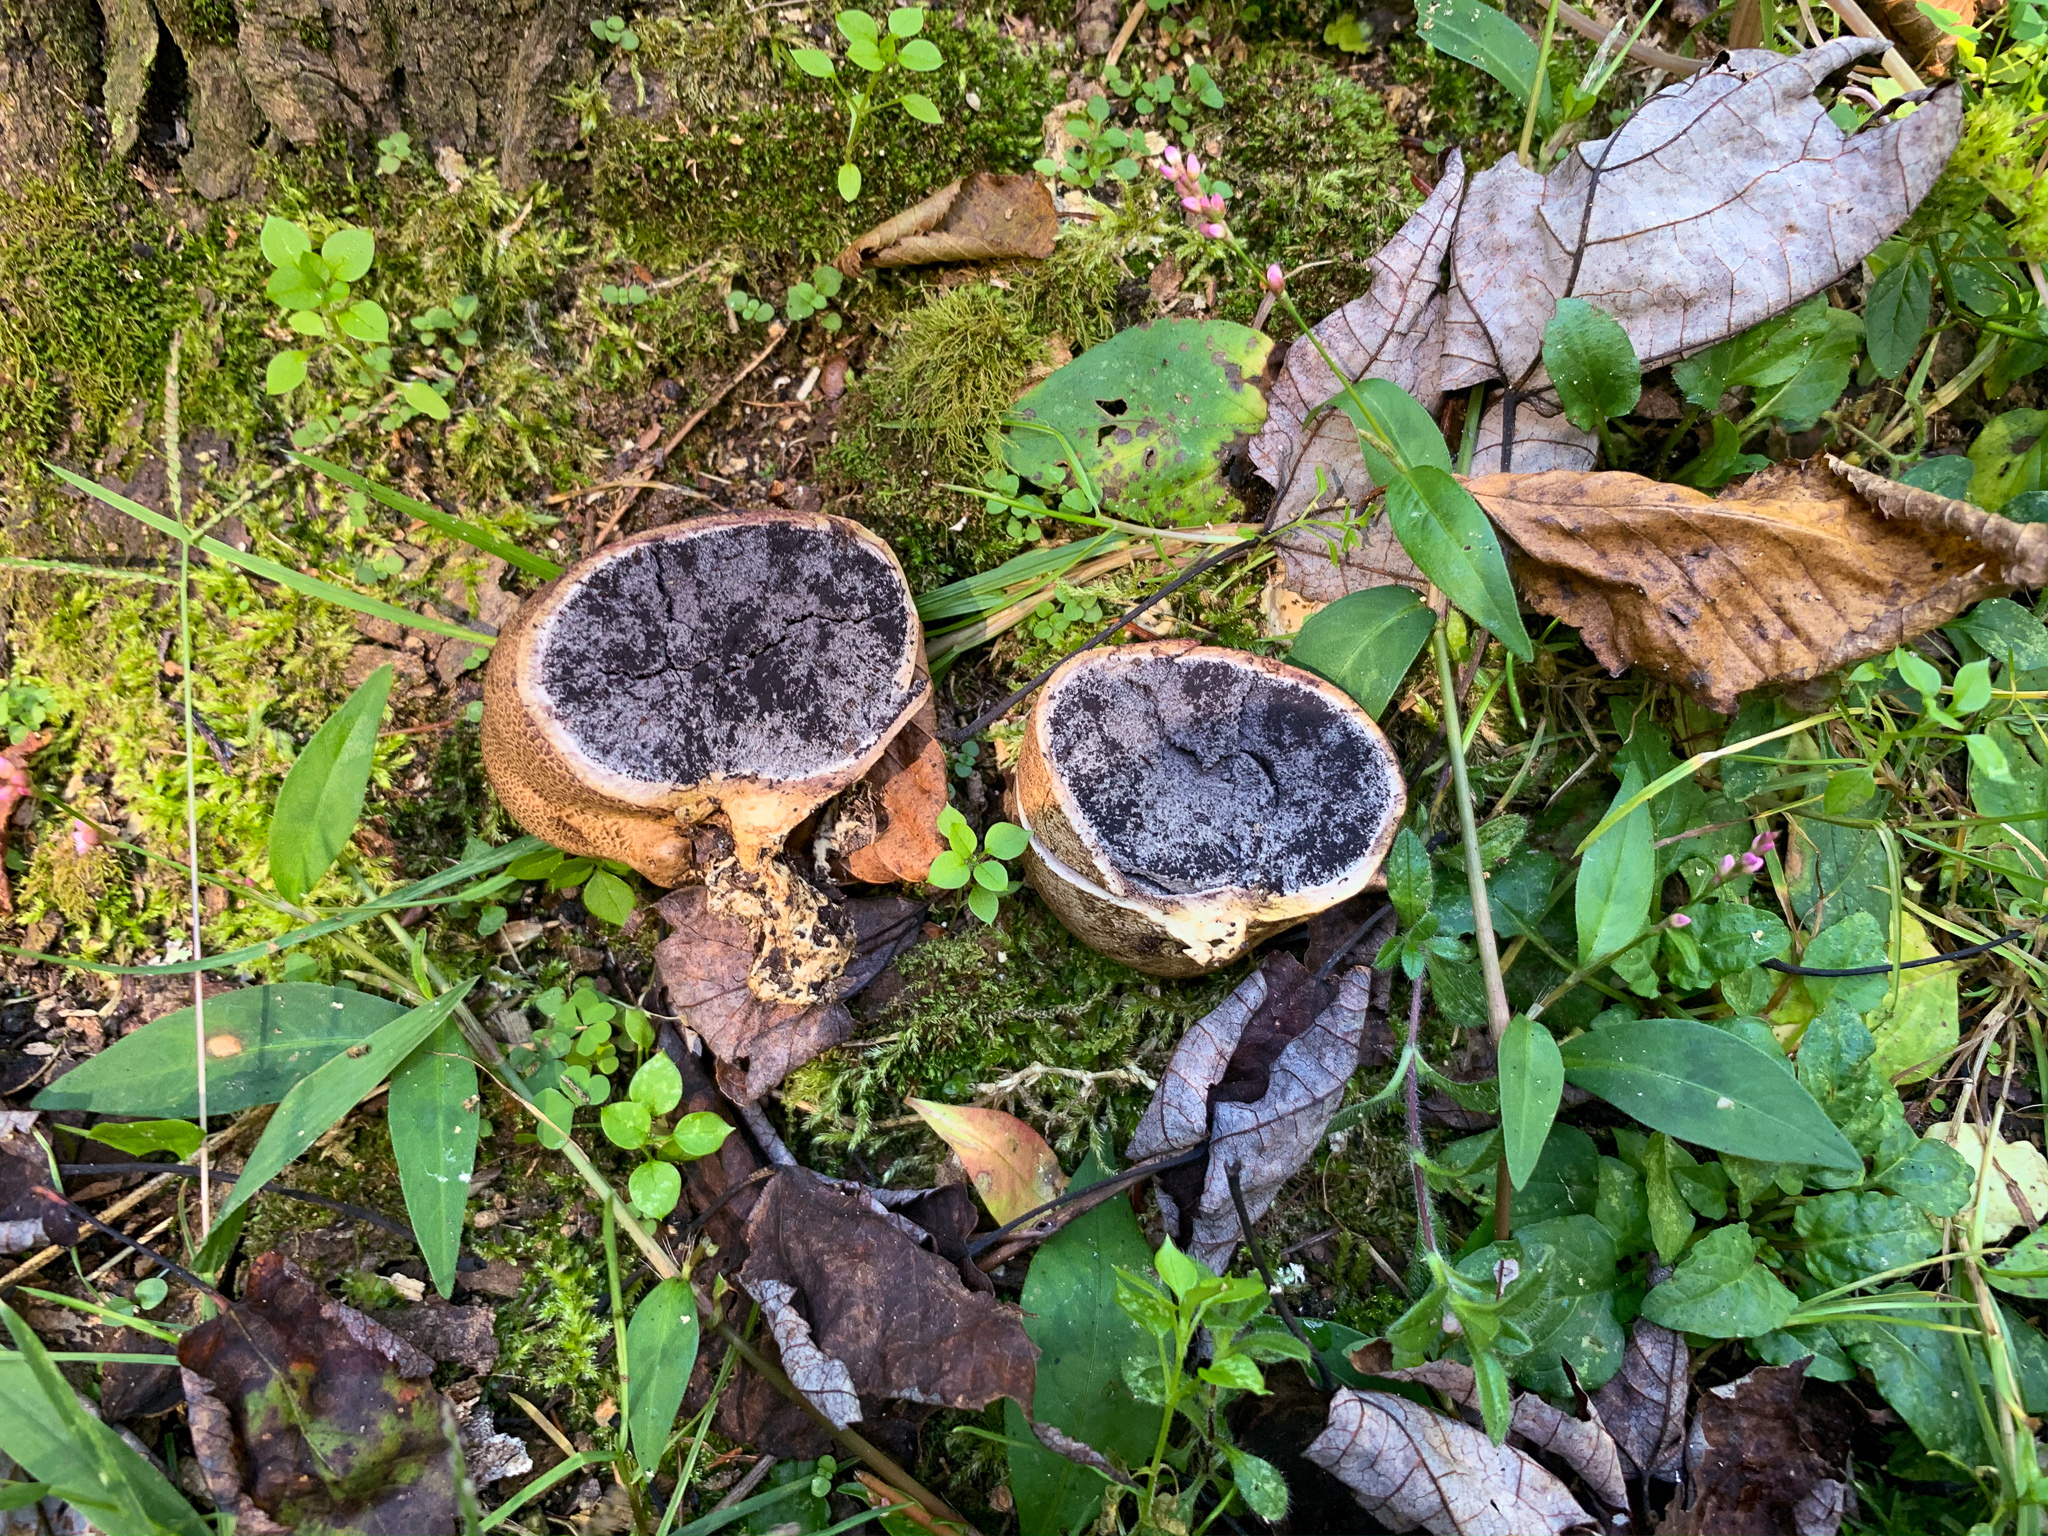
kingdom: Fungi
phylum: Basidiomycota
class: Agaricomycetes
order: Boletales
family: Sclerodermataceae
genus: Scleroderma
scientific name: Scleroderma cepa
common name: Onion earthball
